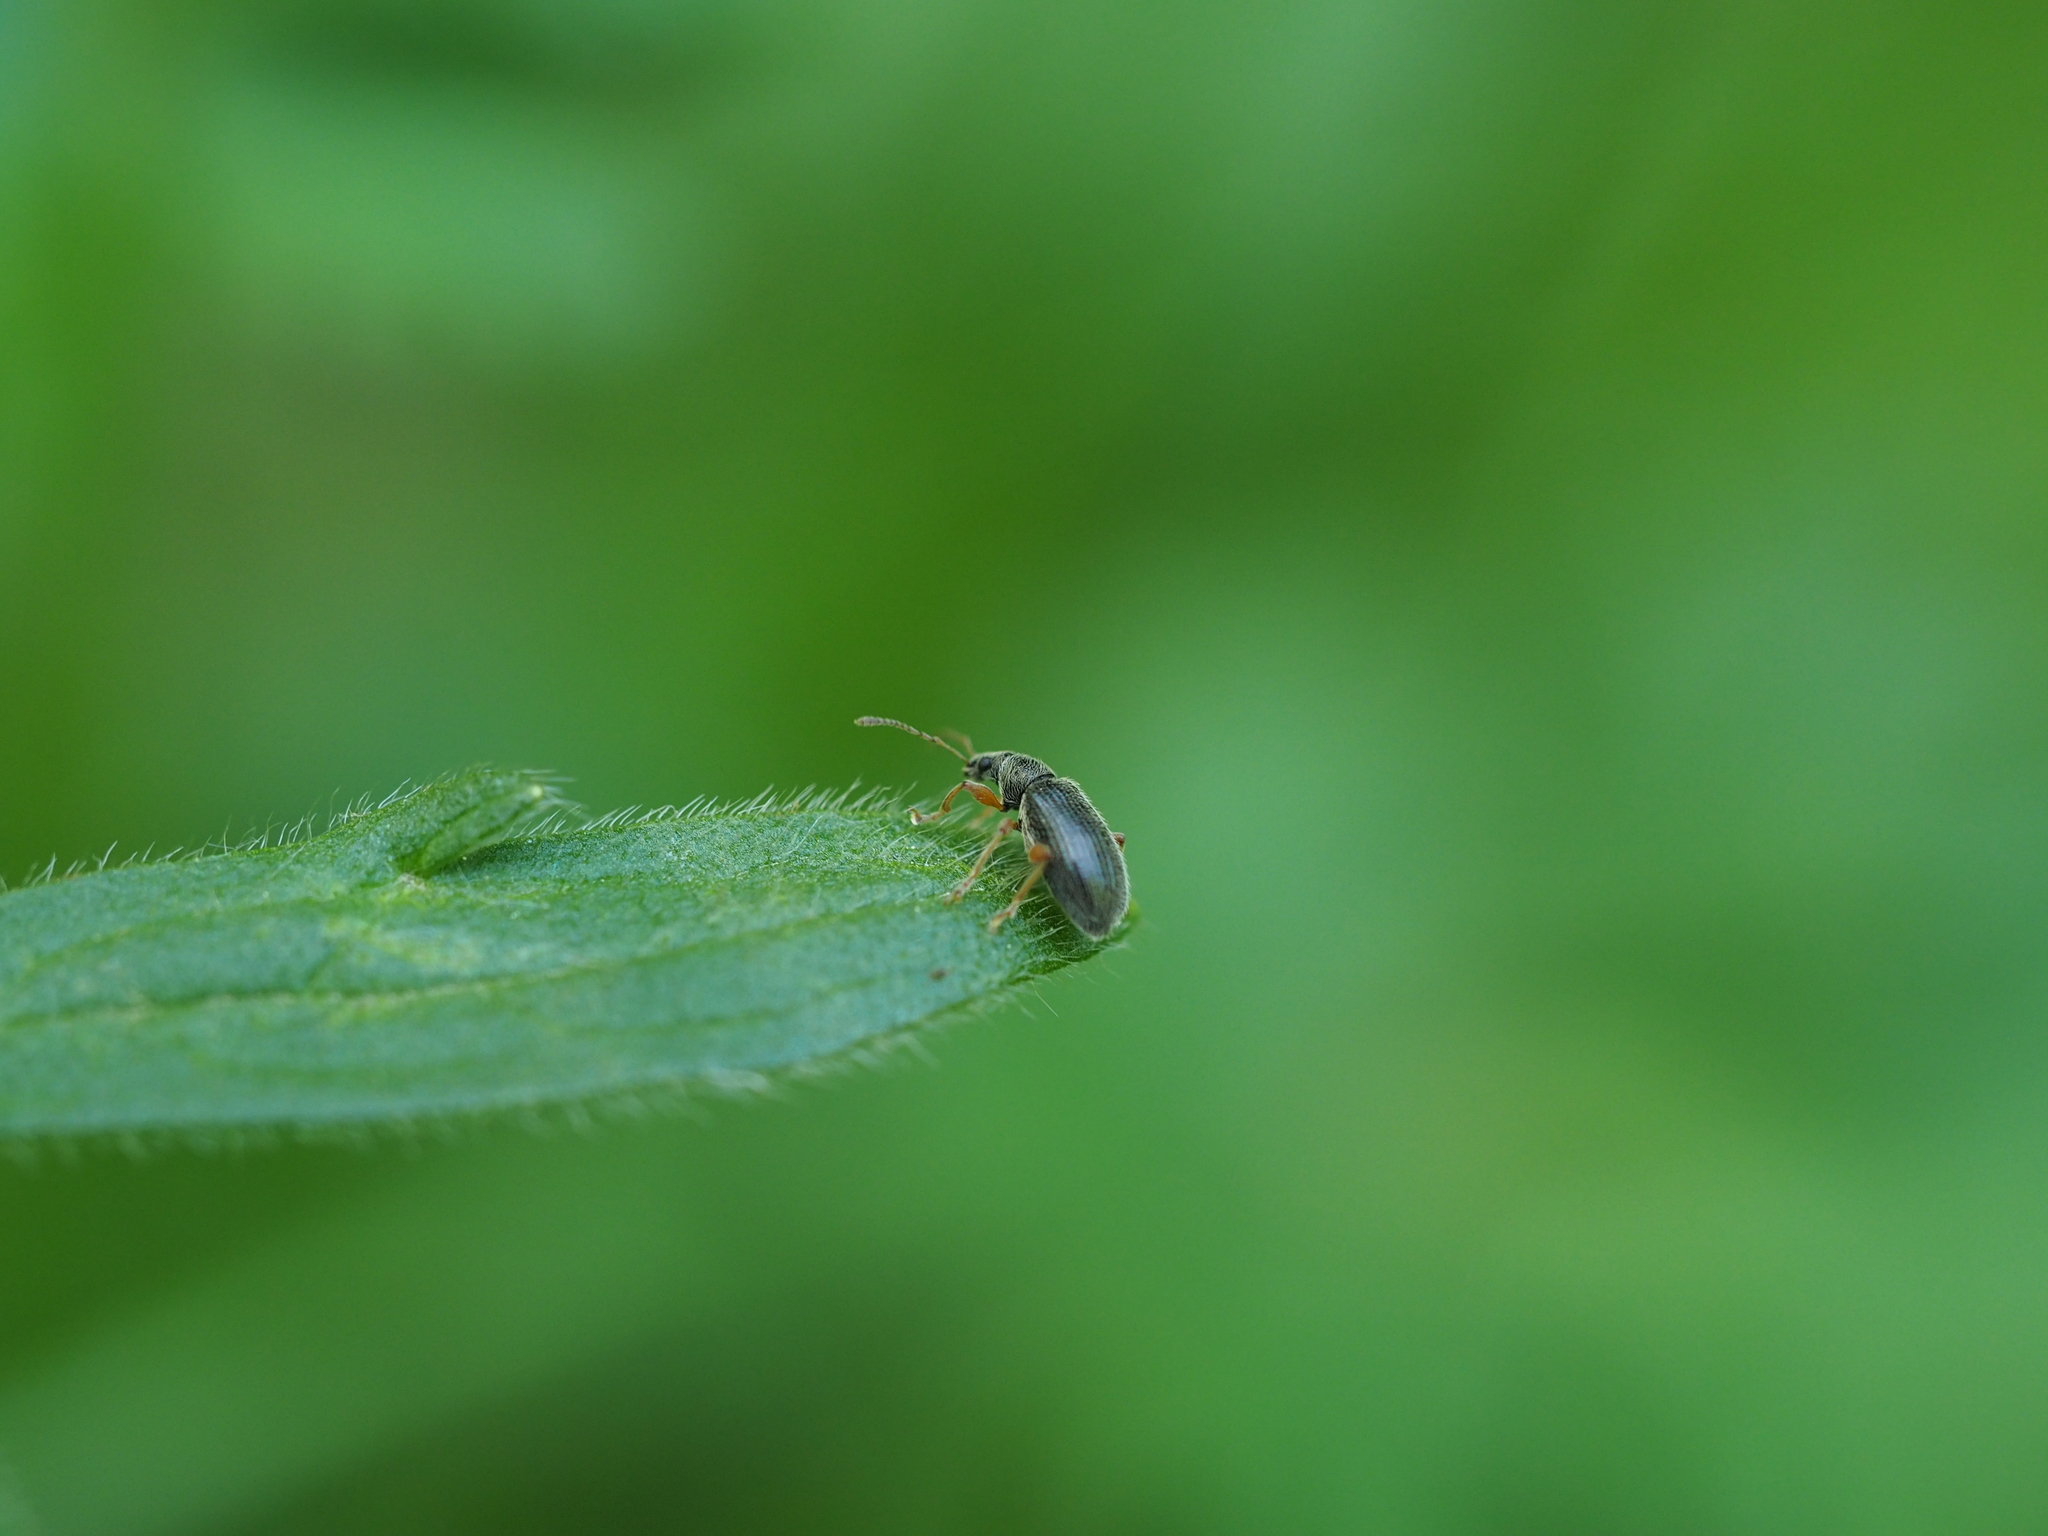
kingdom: Animalia
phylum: Arthropoda
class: Insecta
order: Coleoptera
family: Curculionidae
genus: Phyllobius
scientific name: Phyllobius oblongus
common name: Brown leaf weevil
